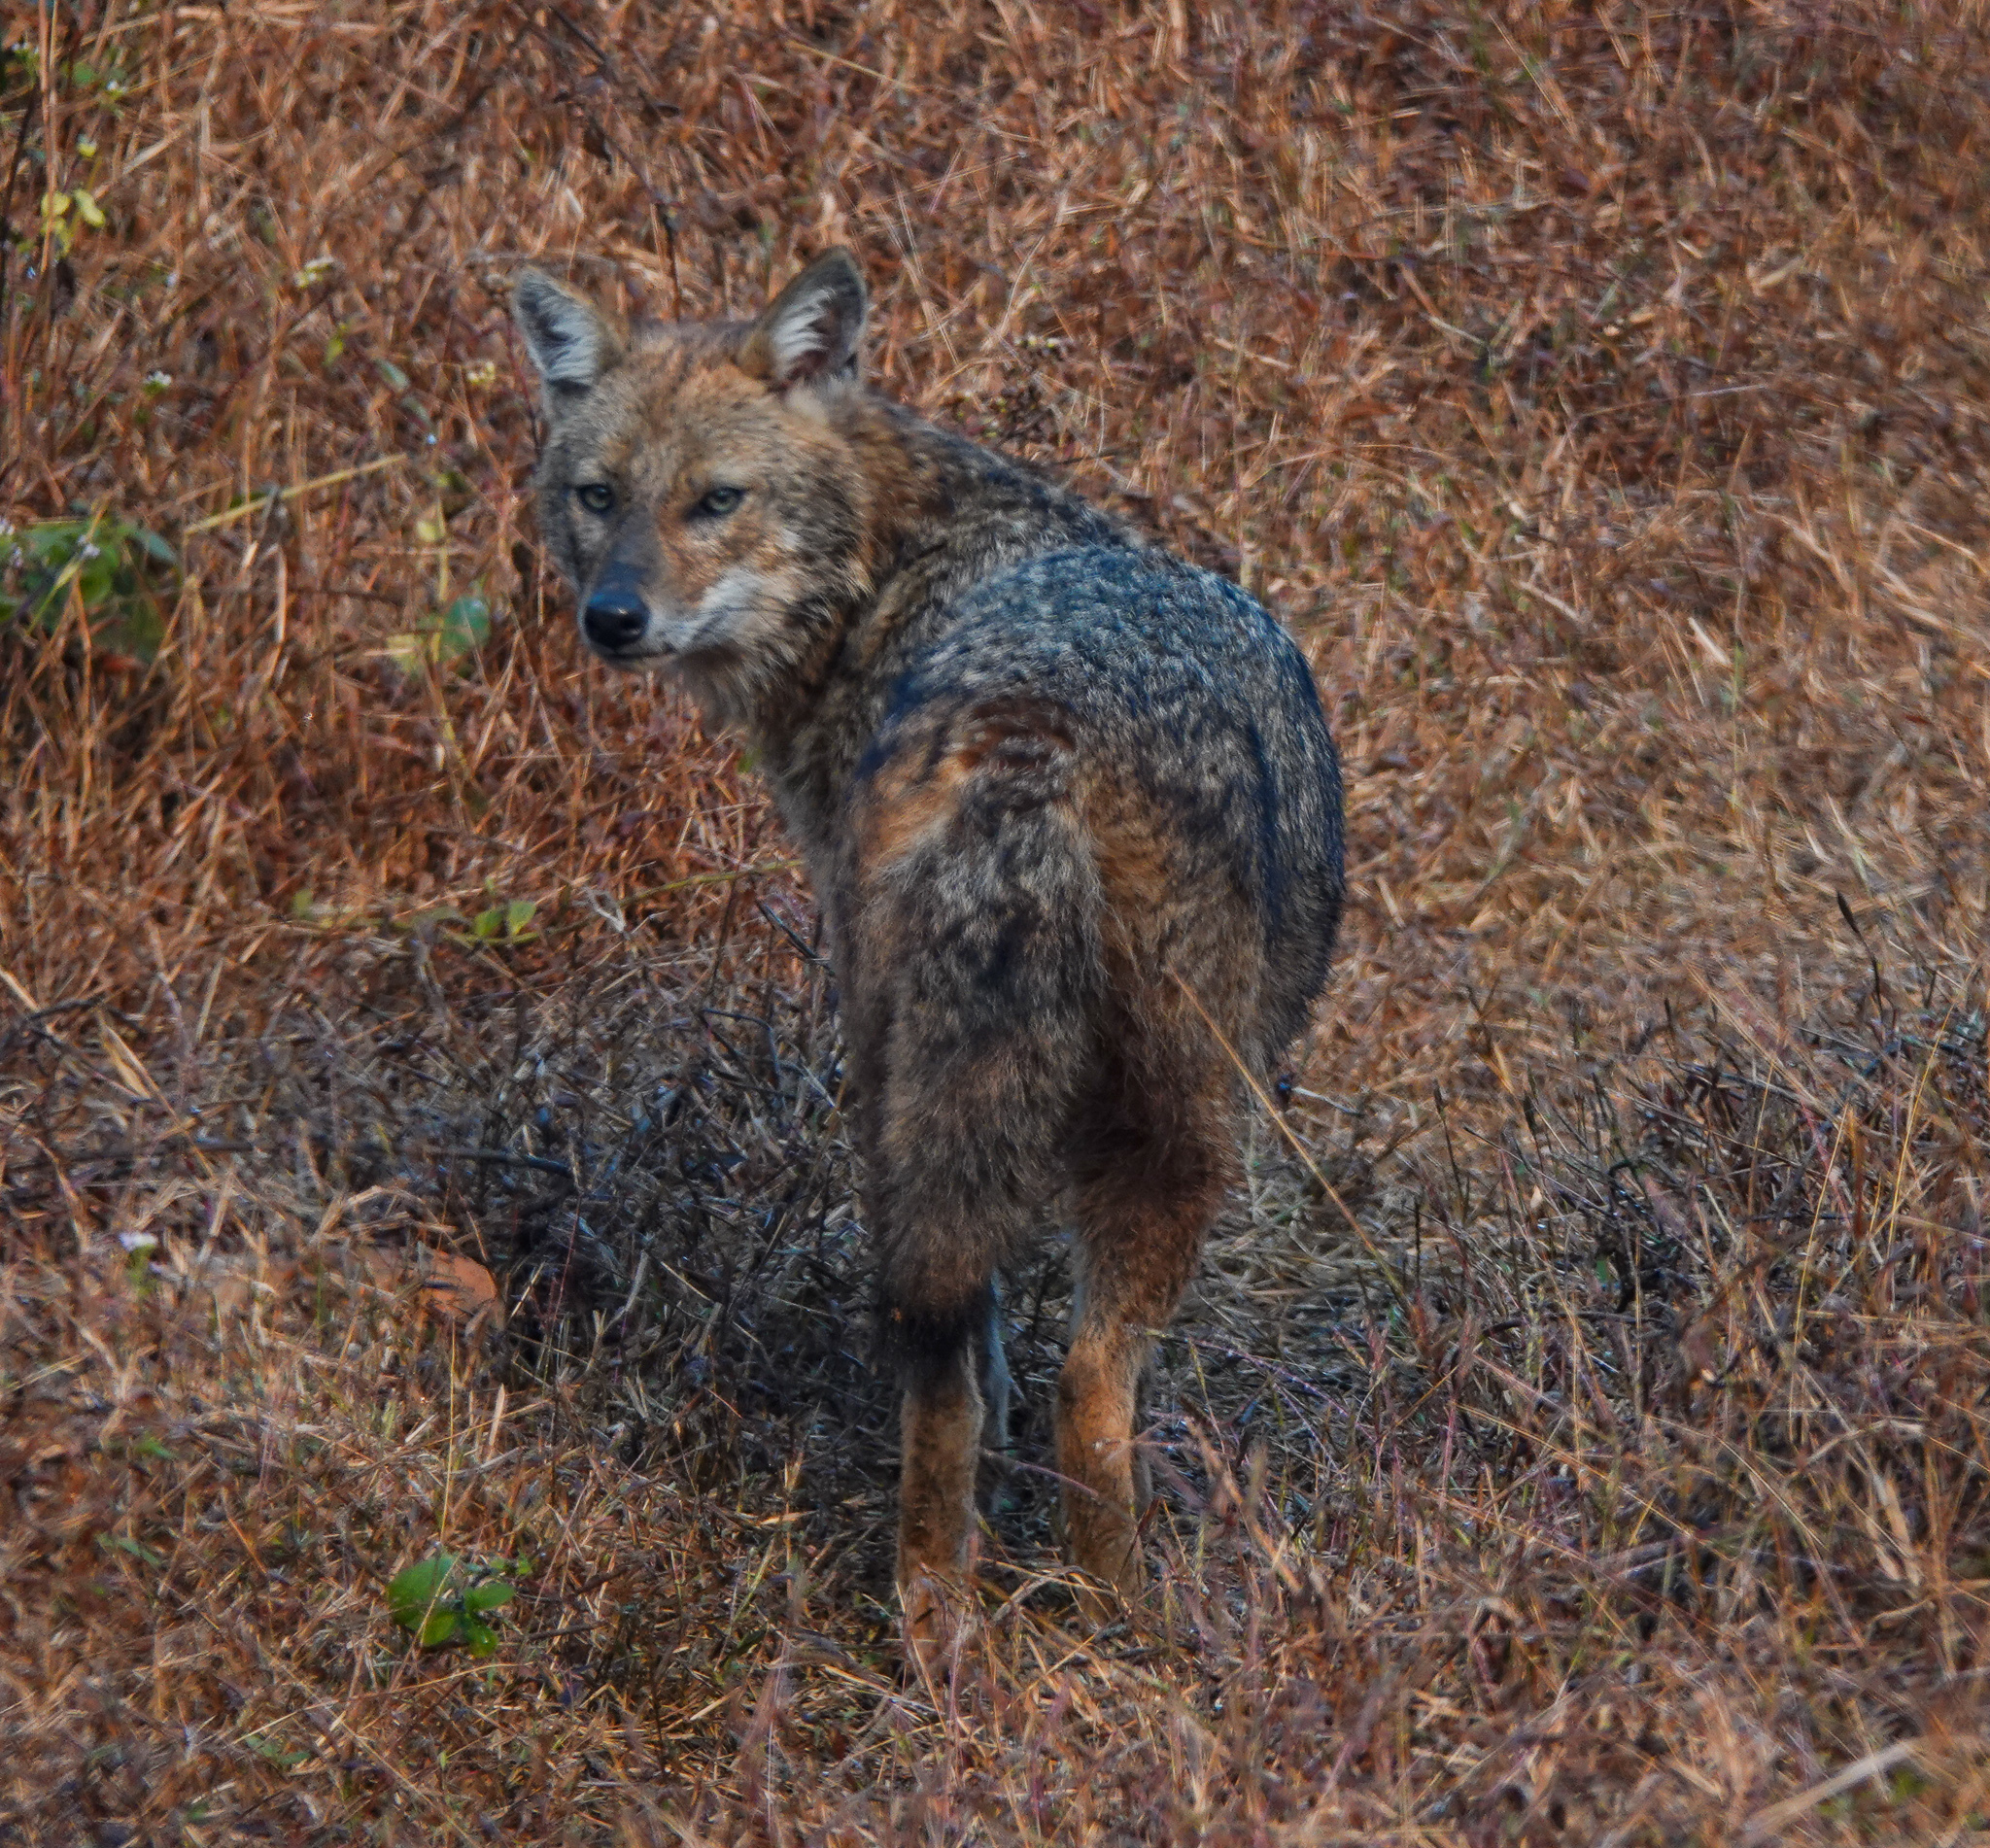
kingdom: Animalia
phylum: Chordata
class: Mammalia
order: Carnivora
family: Canidae
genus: Canis
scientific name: Canis aureus
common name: Golden jackal
